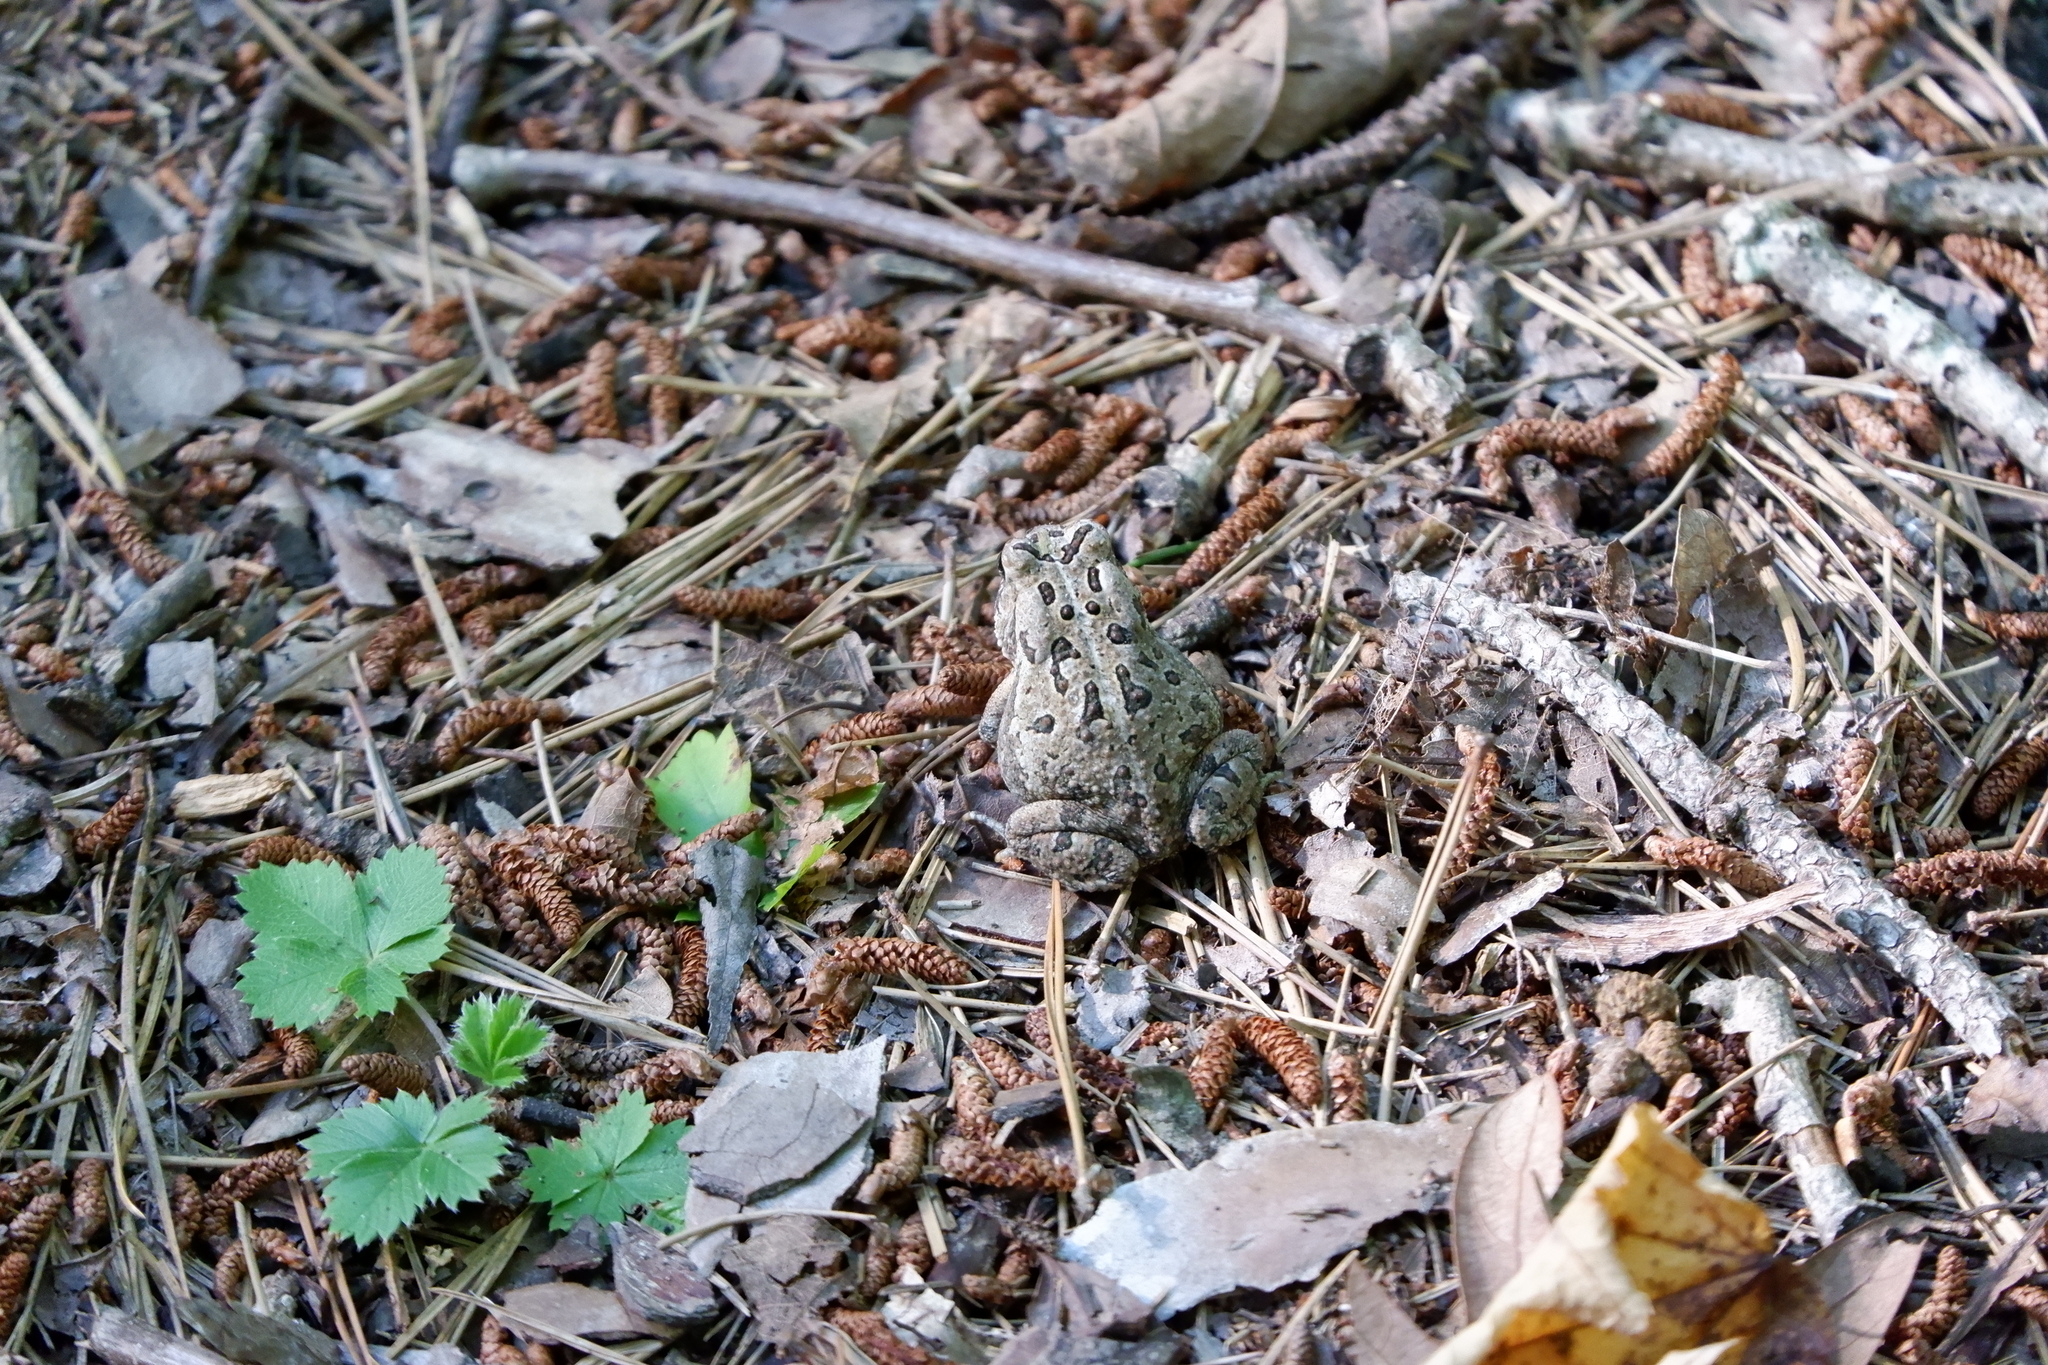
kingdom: Animalia
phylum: Chordata
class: Amphibia
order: Anura
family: Bufonidae
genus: Anaxyrus
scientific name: Anaxyrus fowleri
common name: Fowler's toad
